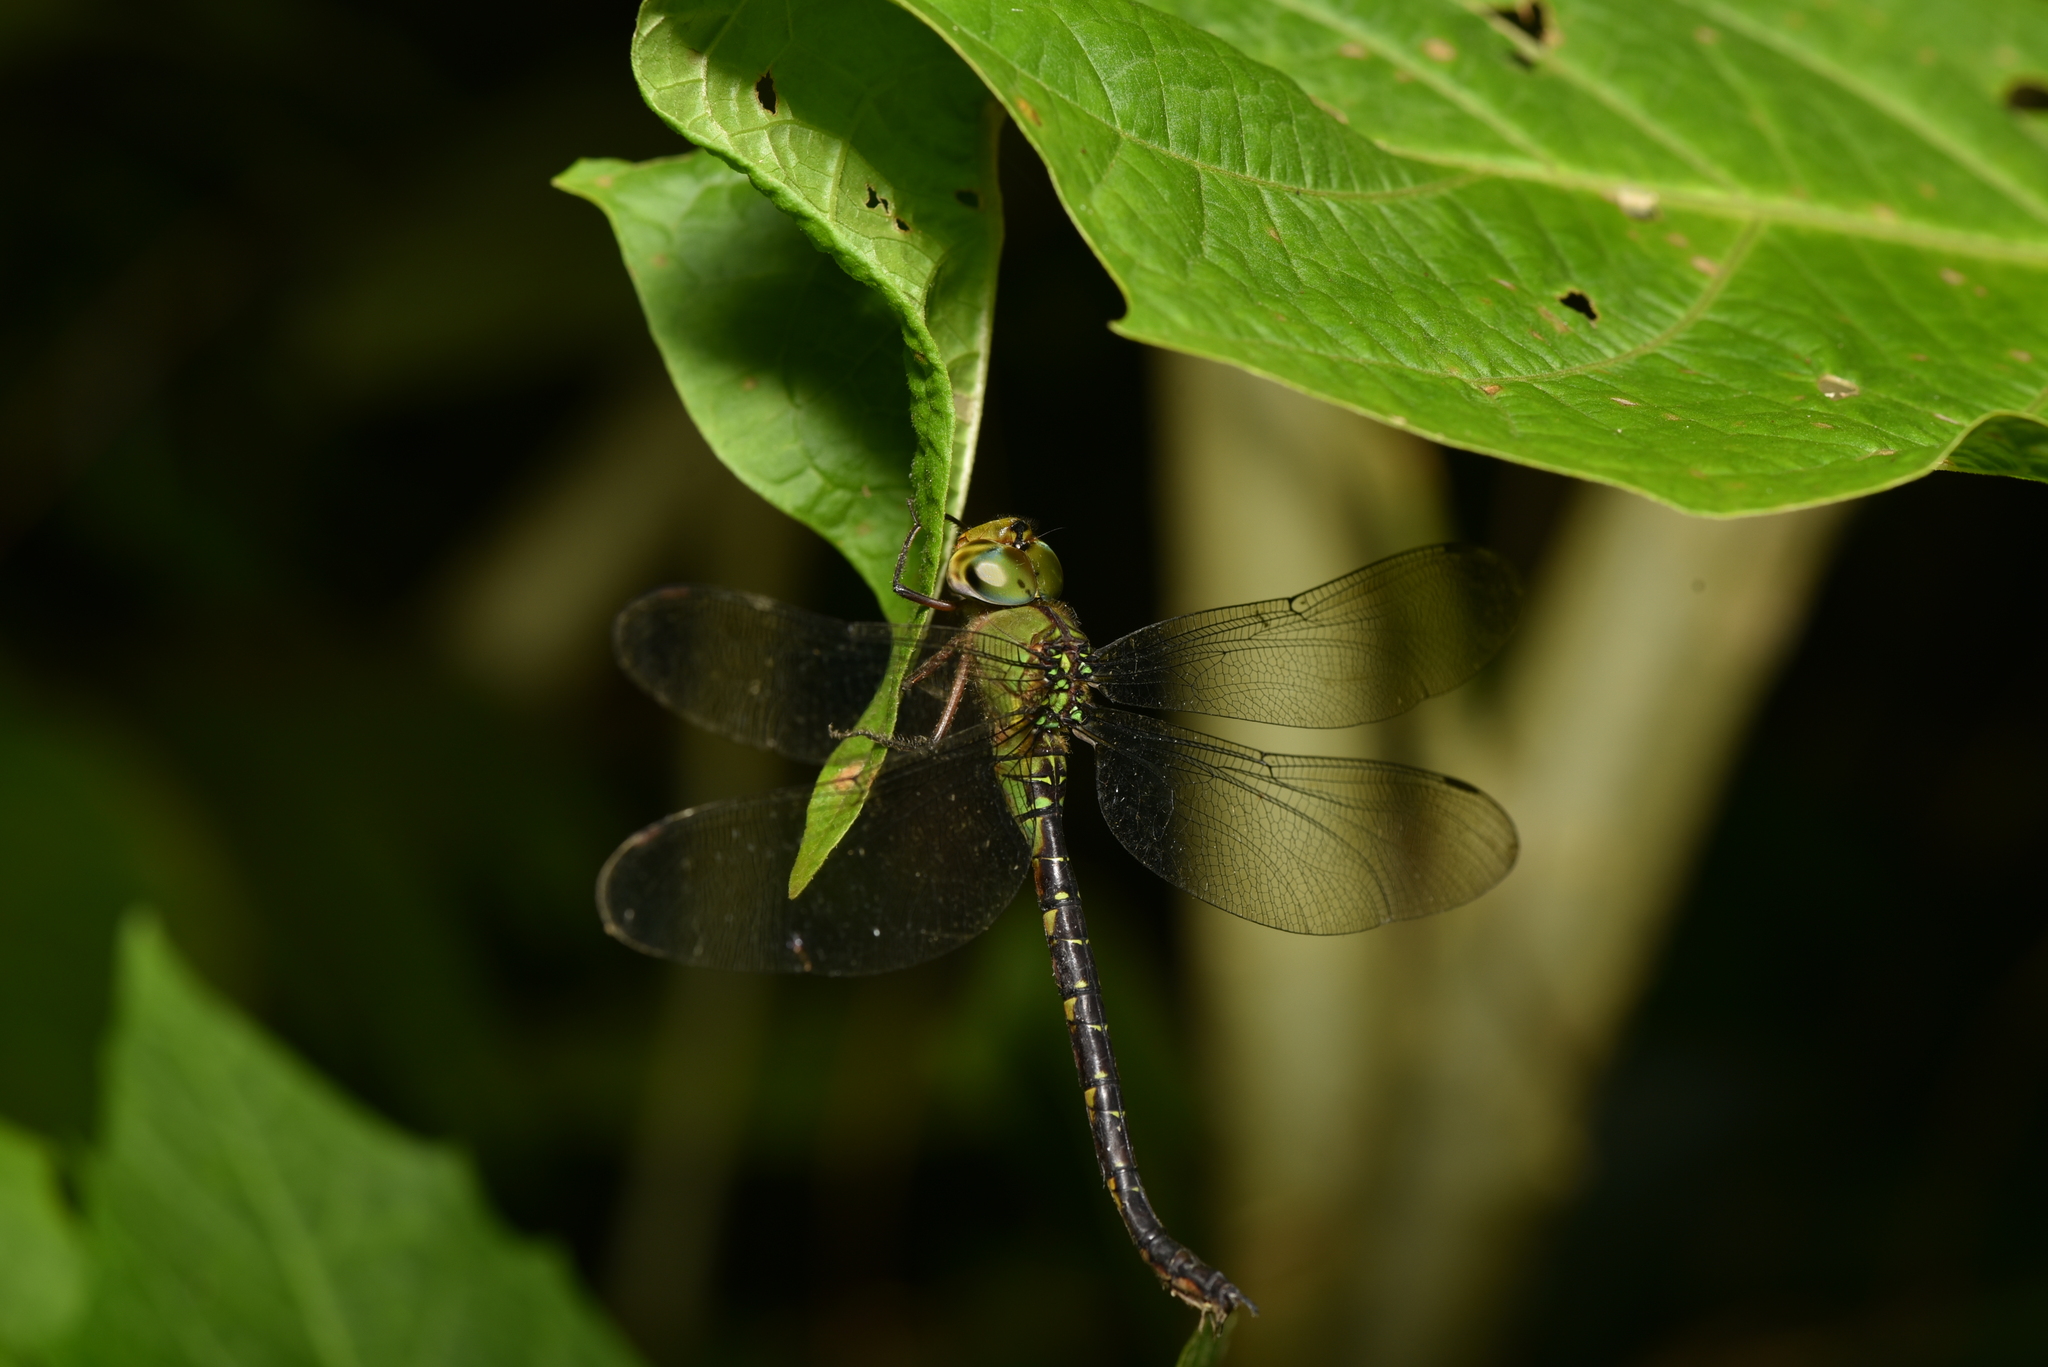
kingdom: Animalia
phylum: Arthropoda
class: Insecta
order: Odonata
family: Aeshnidae
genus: Gynacantha
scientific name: Gynacantha japonica
